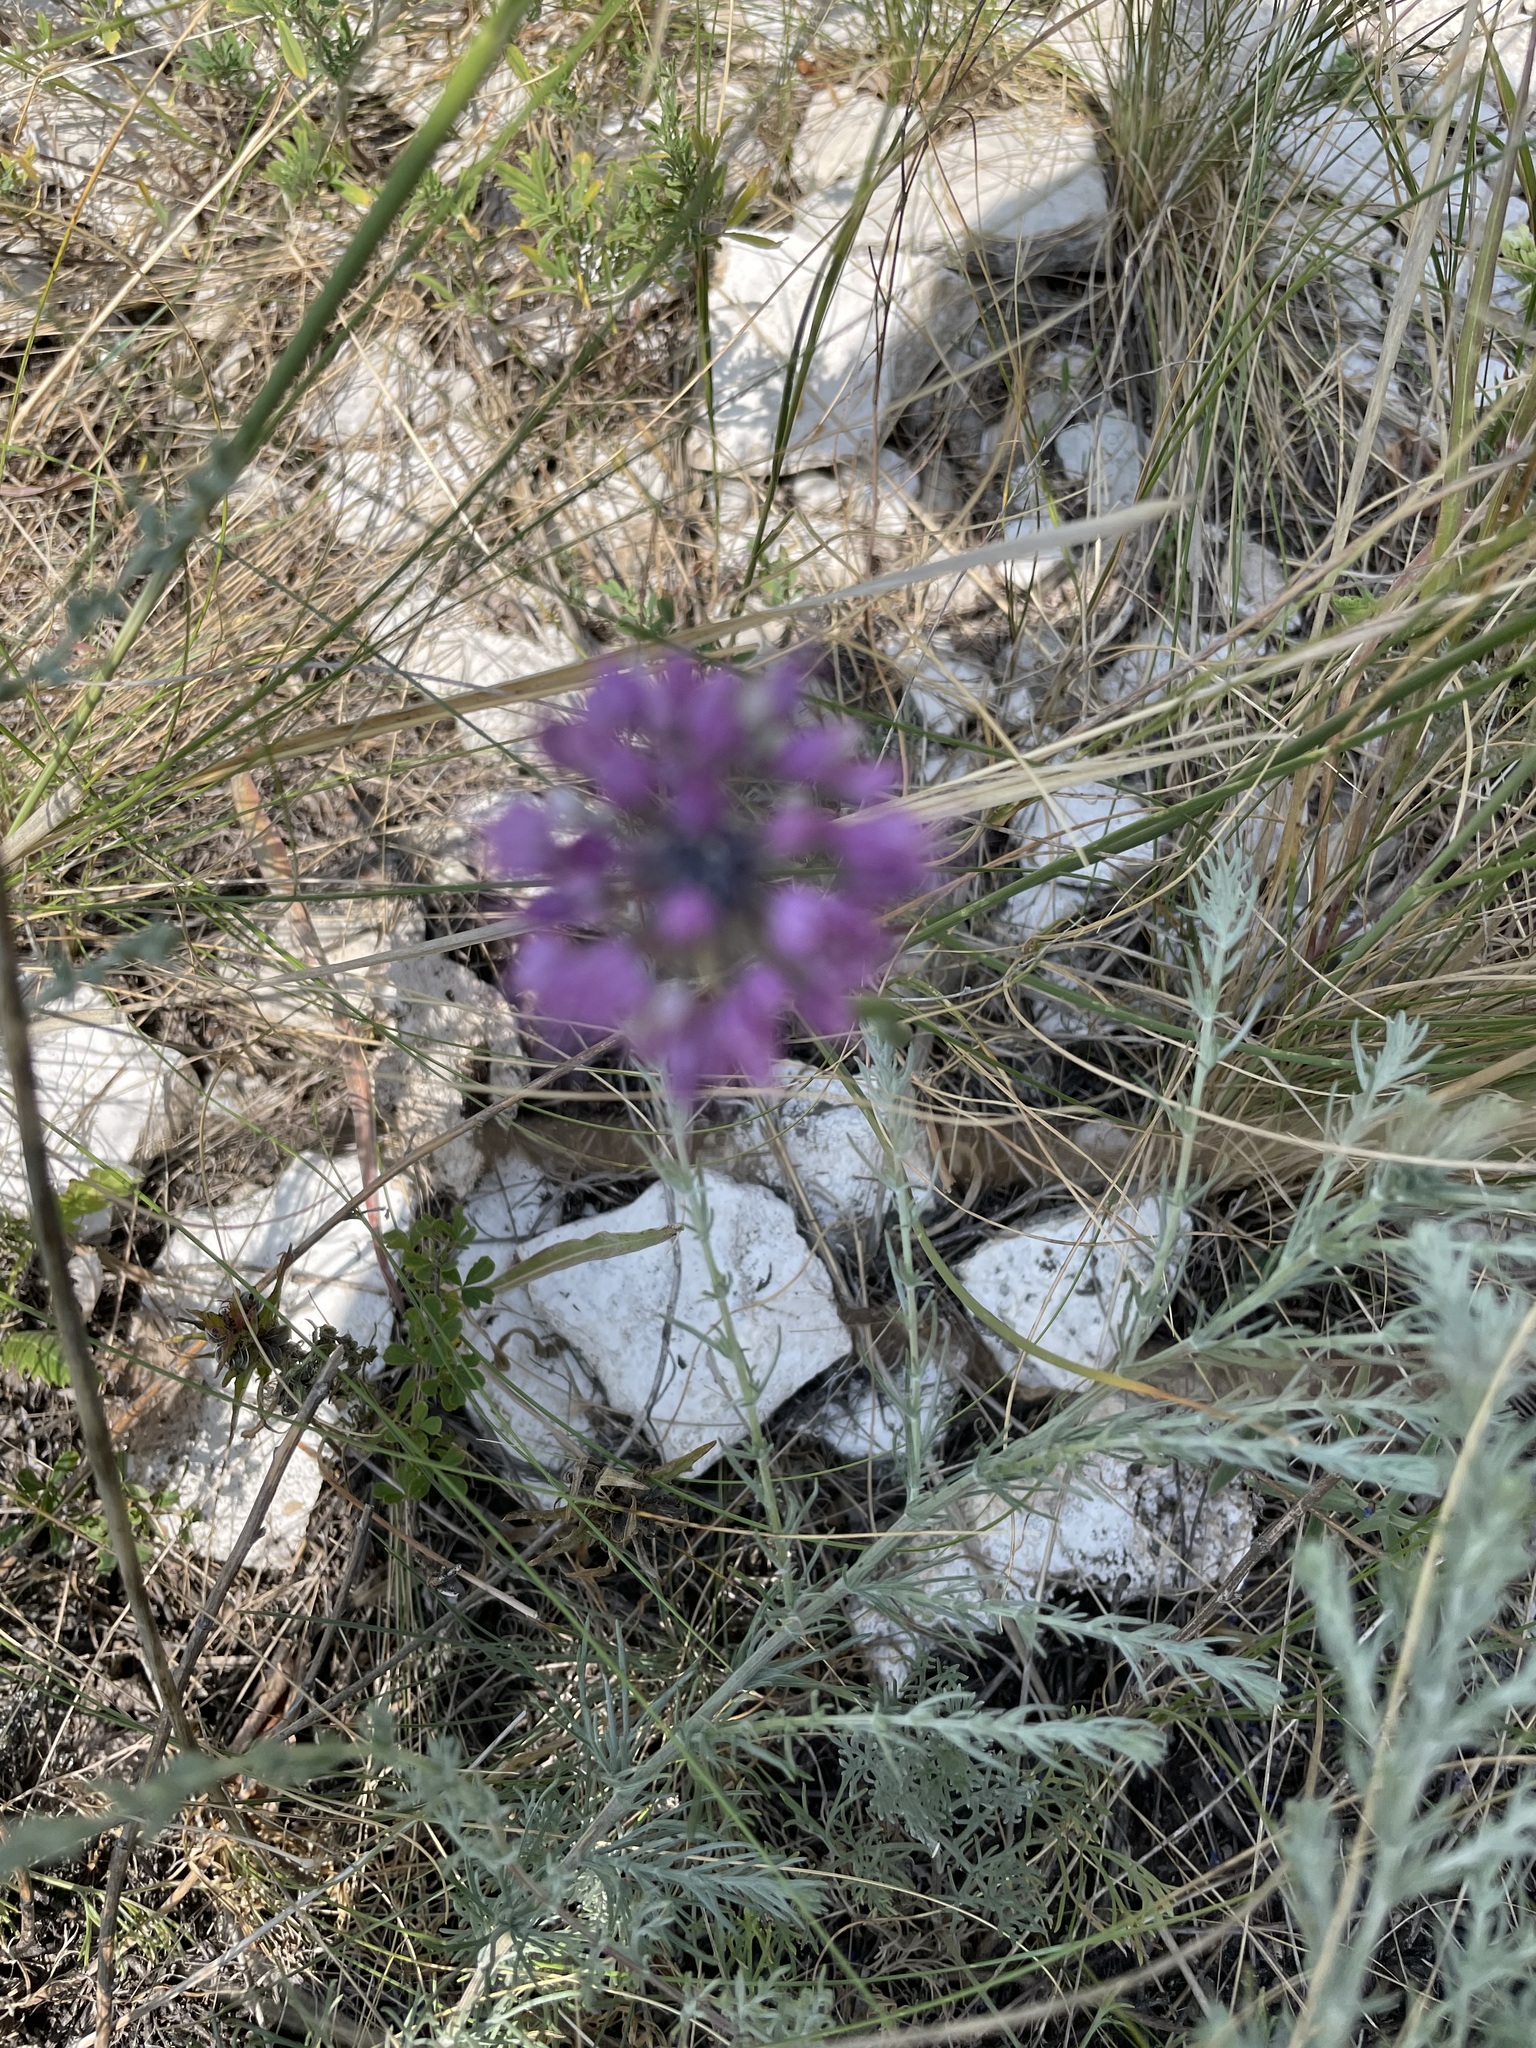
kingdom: Plantae
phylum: Tracheophyta
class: Liliopsida
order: Asparagales
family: Amaryllidaceae
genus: Allium
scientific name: Allium cretaceum
